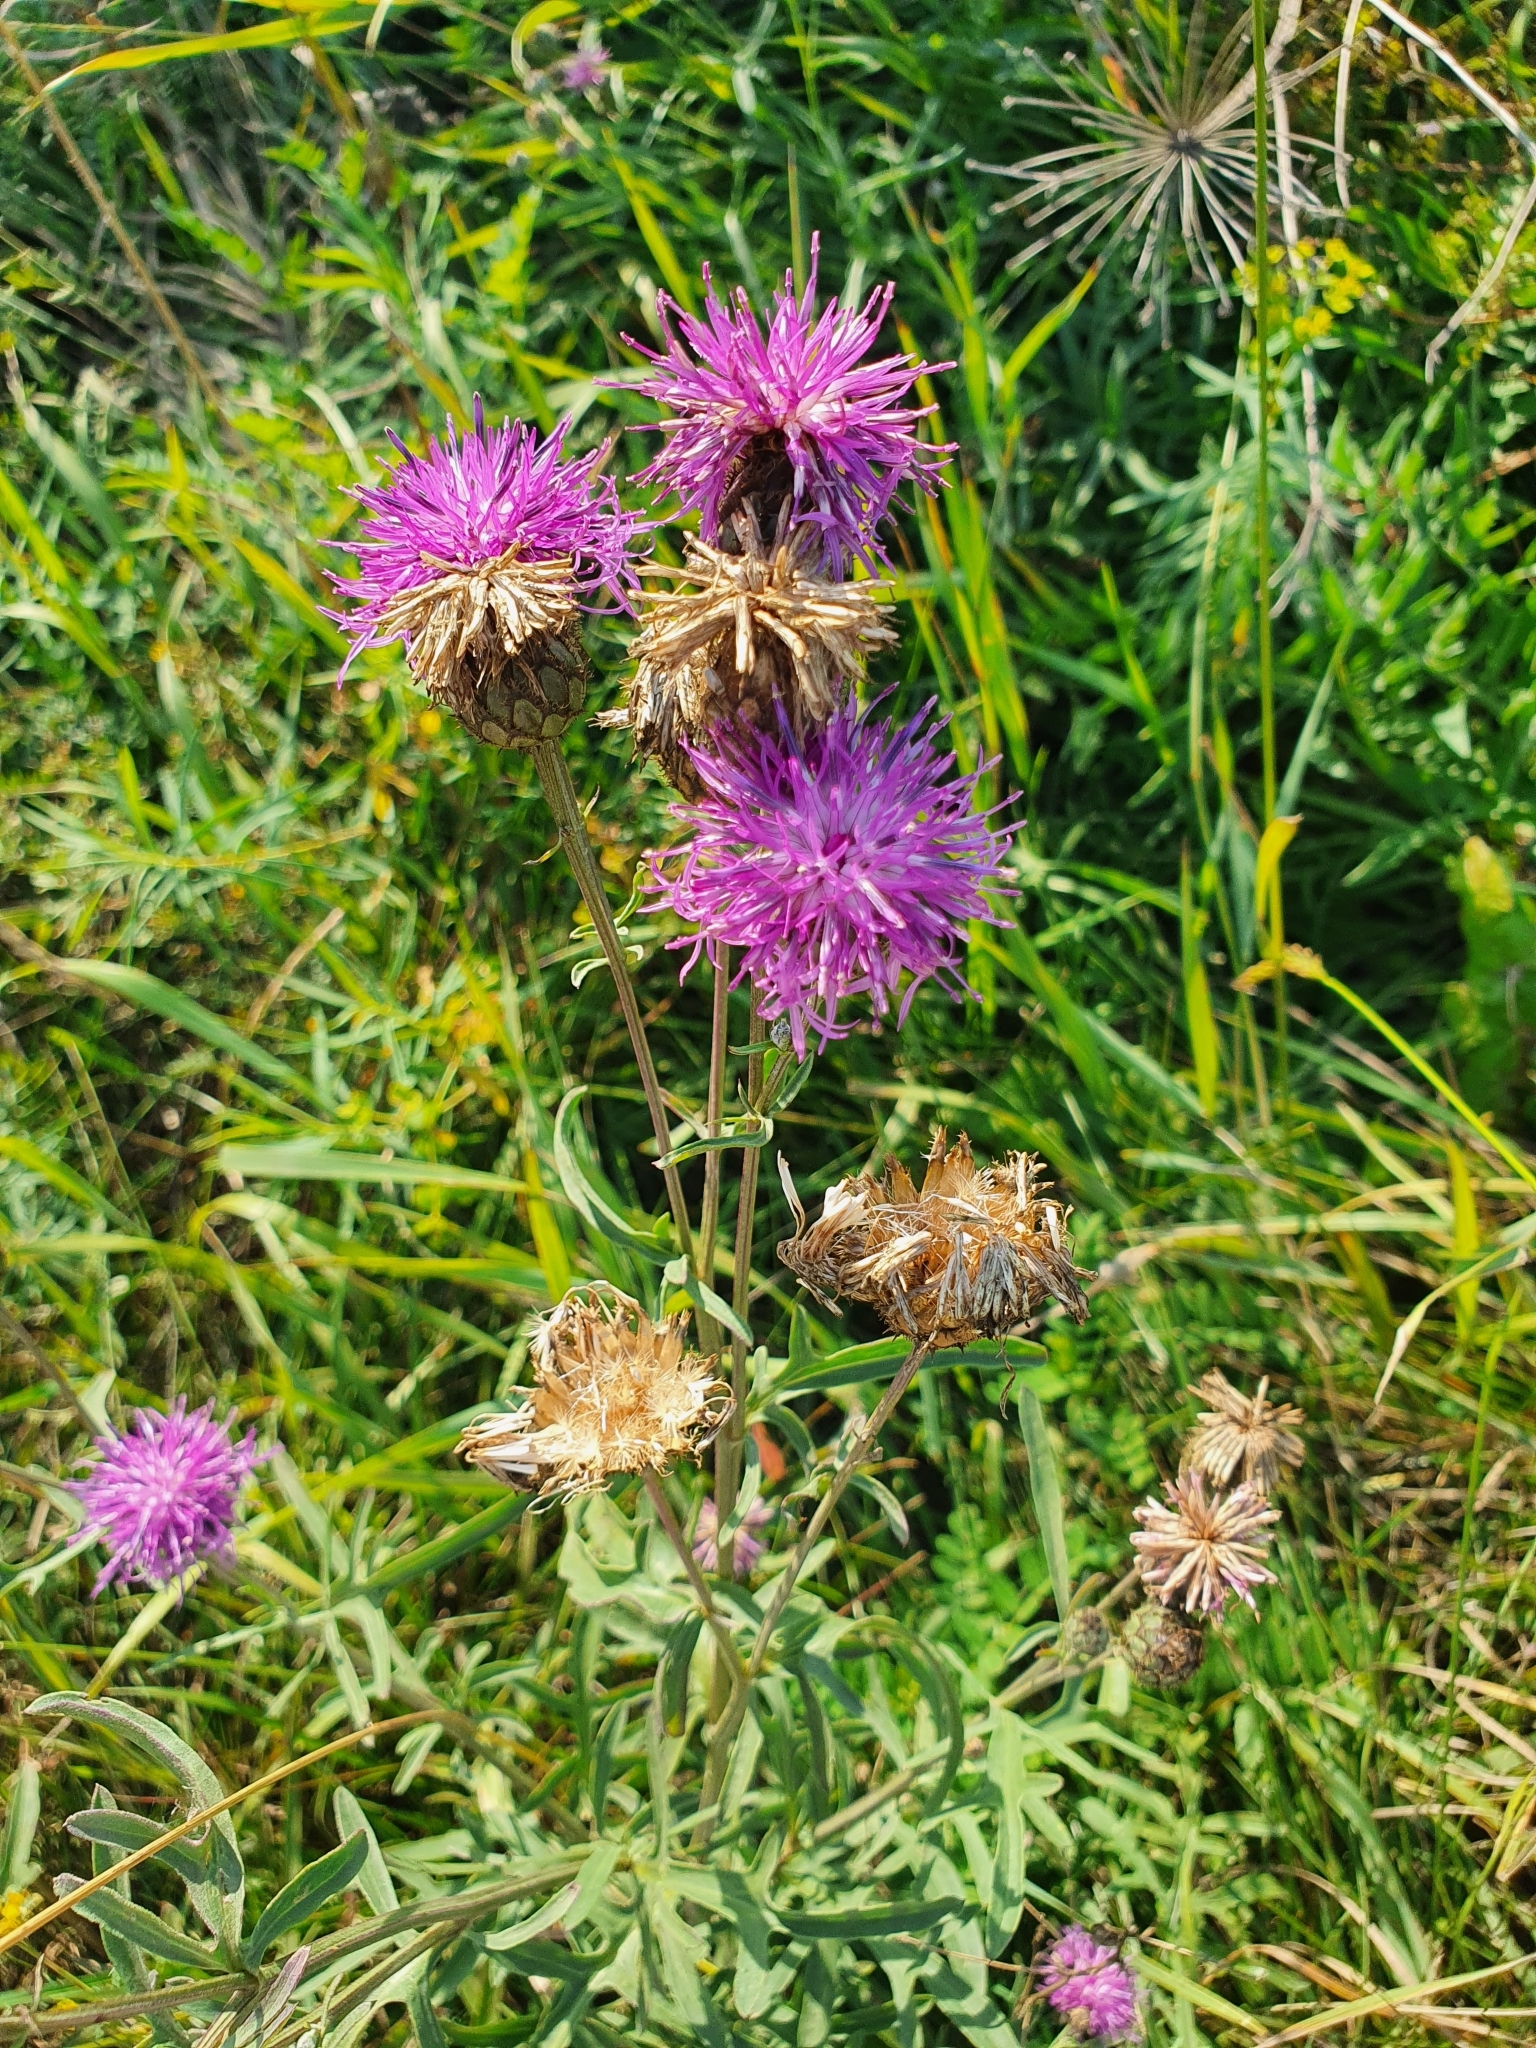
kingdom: Plantae
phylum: Tracheophyta
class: Magnoliopsida
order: Asterales
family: Asteraceae
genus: Centaurea
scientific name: Centaurea scabiosa
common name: Greater knapweed
